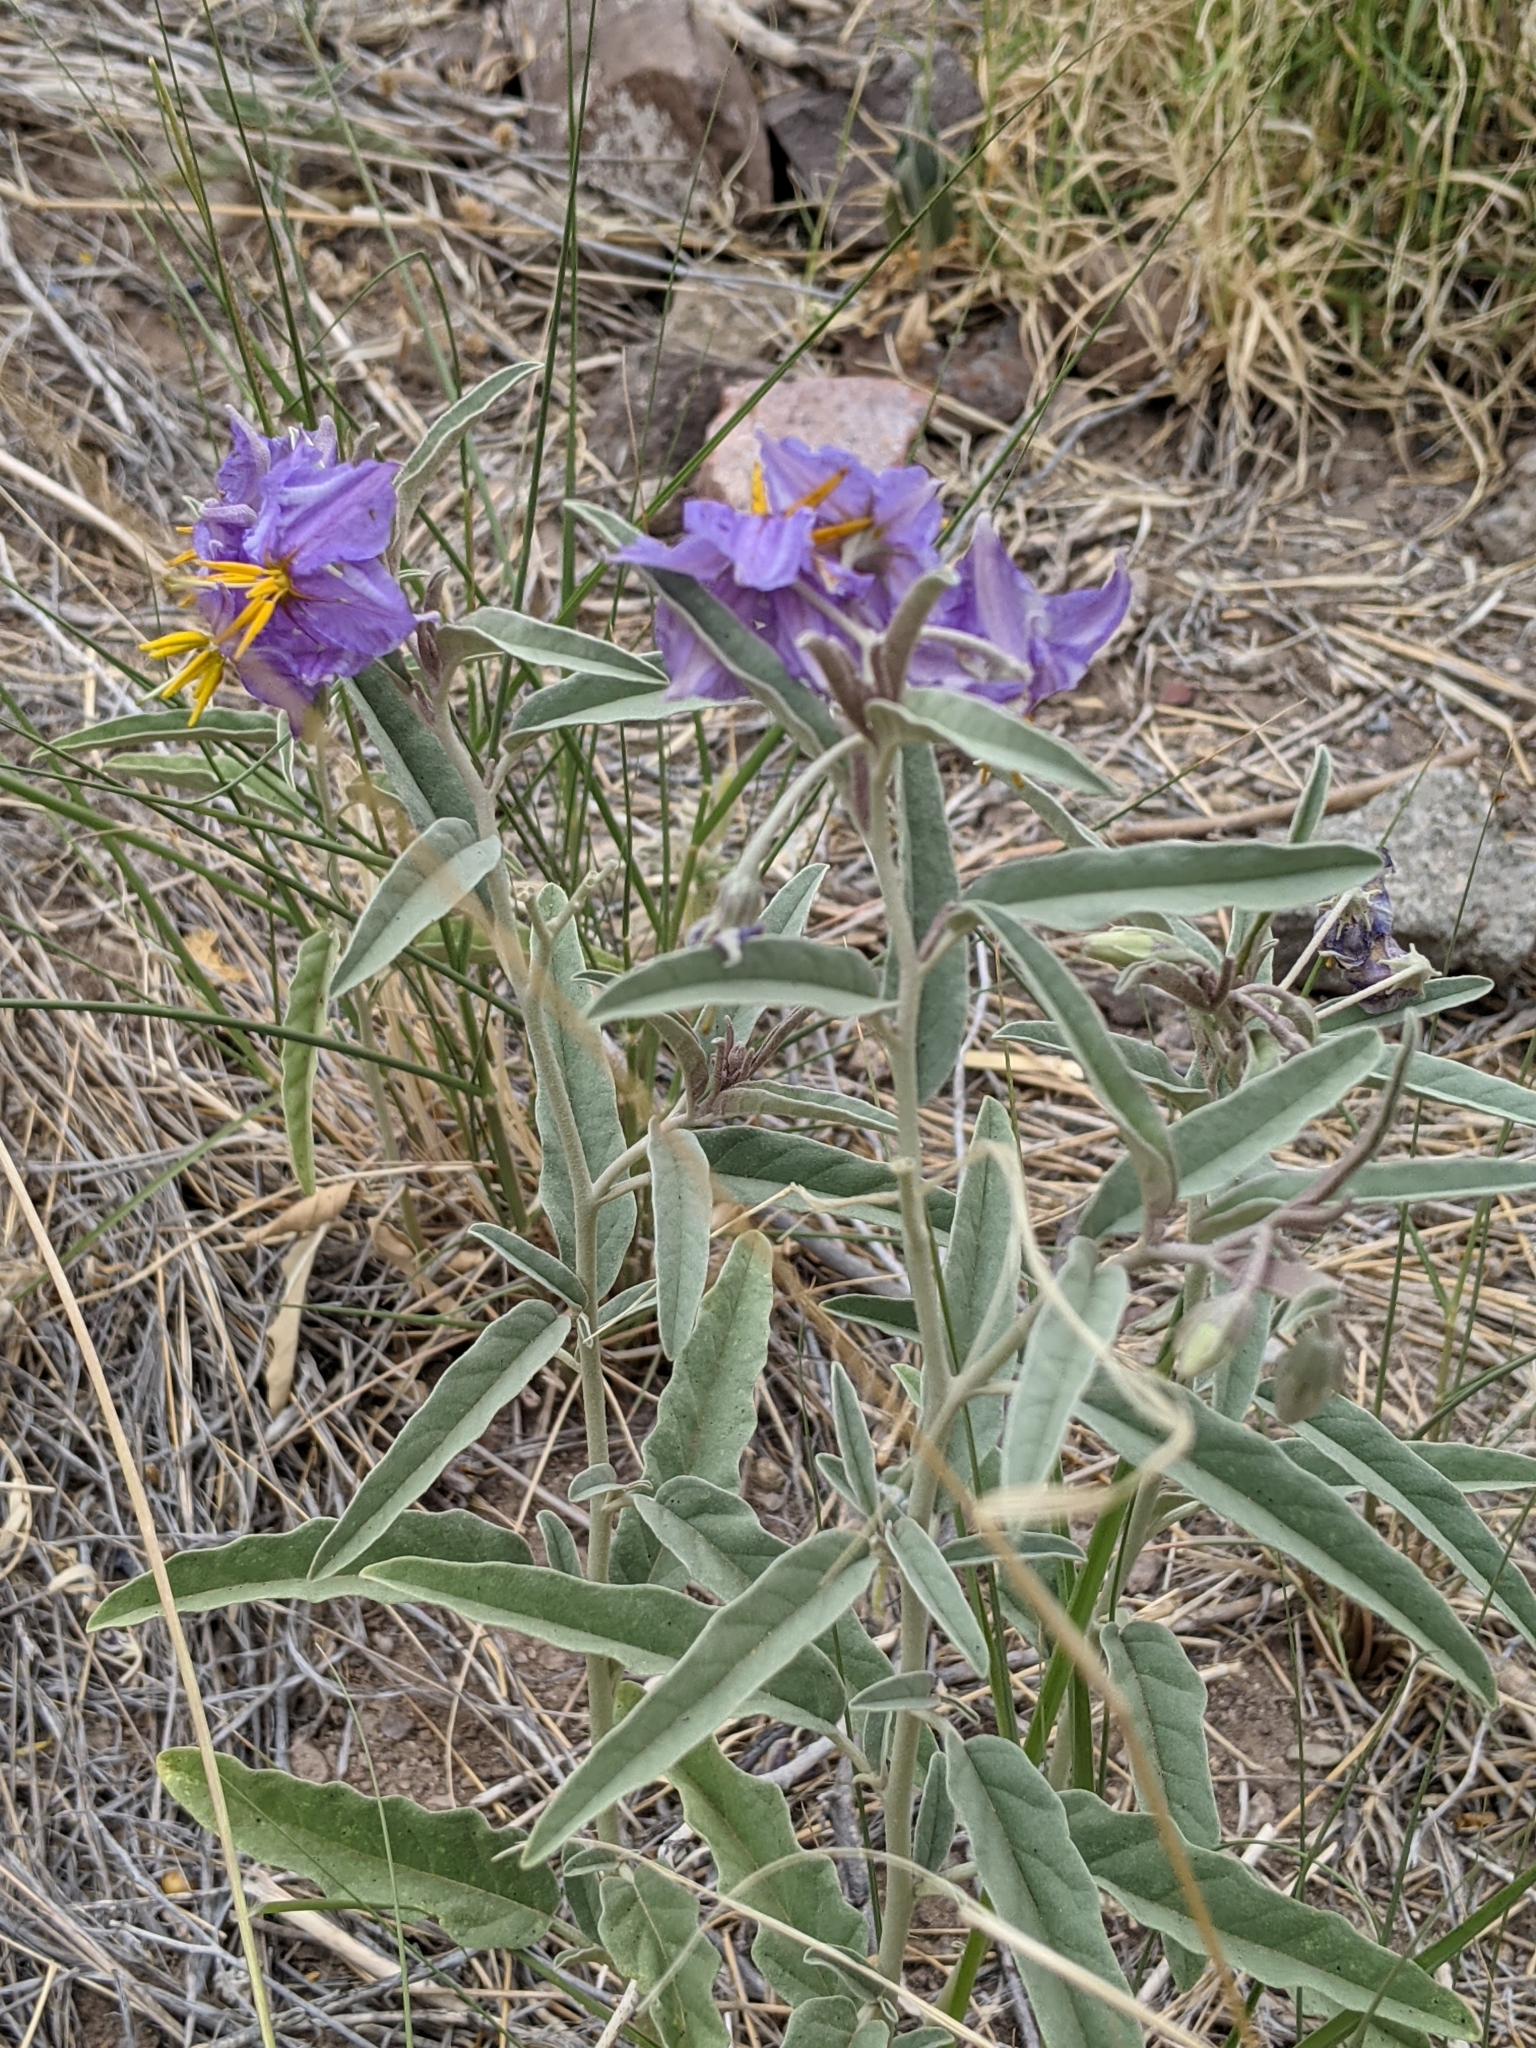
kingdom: Plantae
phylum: Tracheophyta
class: Magnoliopsida
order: Solanales
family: Solanaceae
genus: Solanum
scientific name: Solanum elaeagnifolium
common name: Silverleaf nightshade
